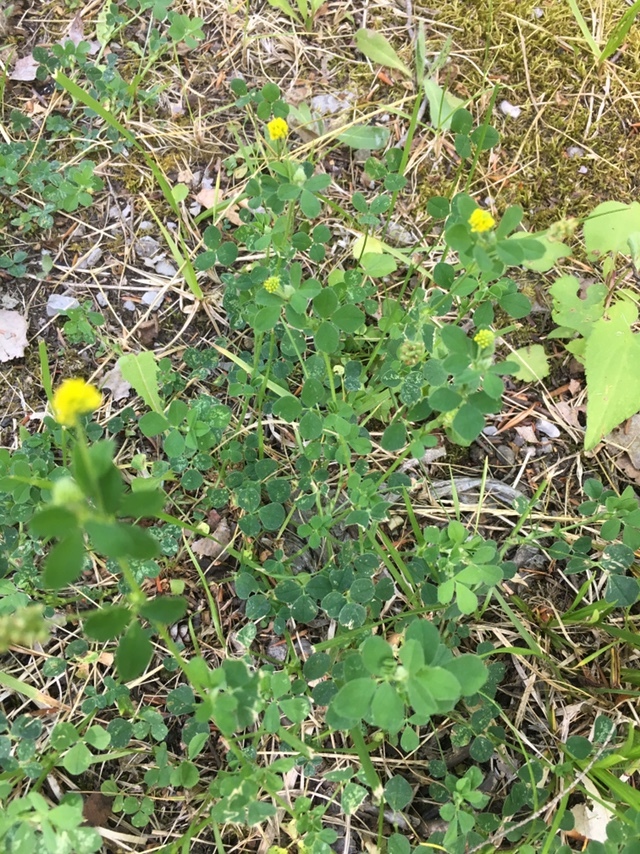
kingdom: Plantae
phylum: Tracheophyta
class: Magnoliopsida
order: Fabales
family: Fabaceae
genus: Medicago
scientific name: Medicago lupulina
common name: Black medick
